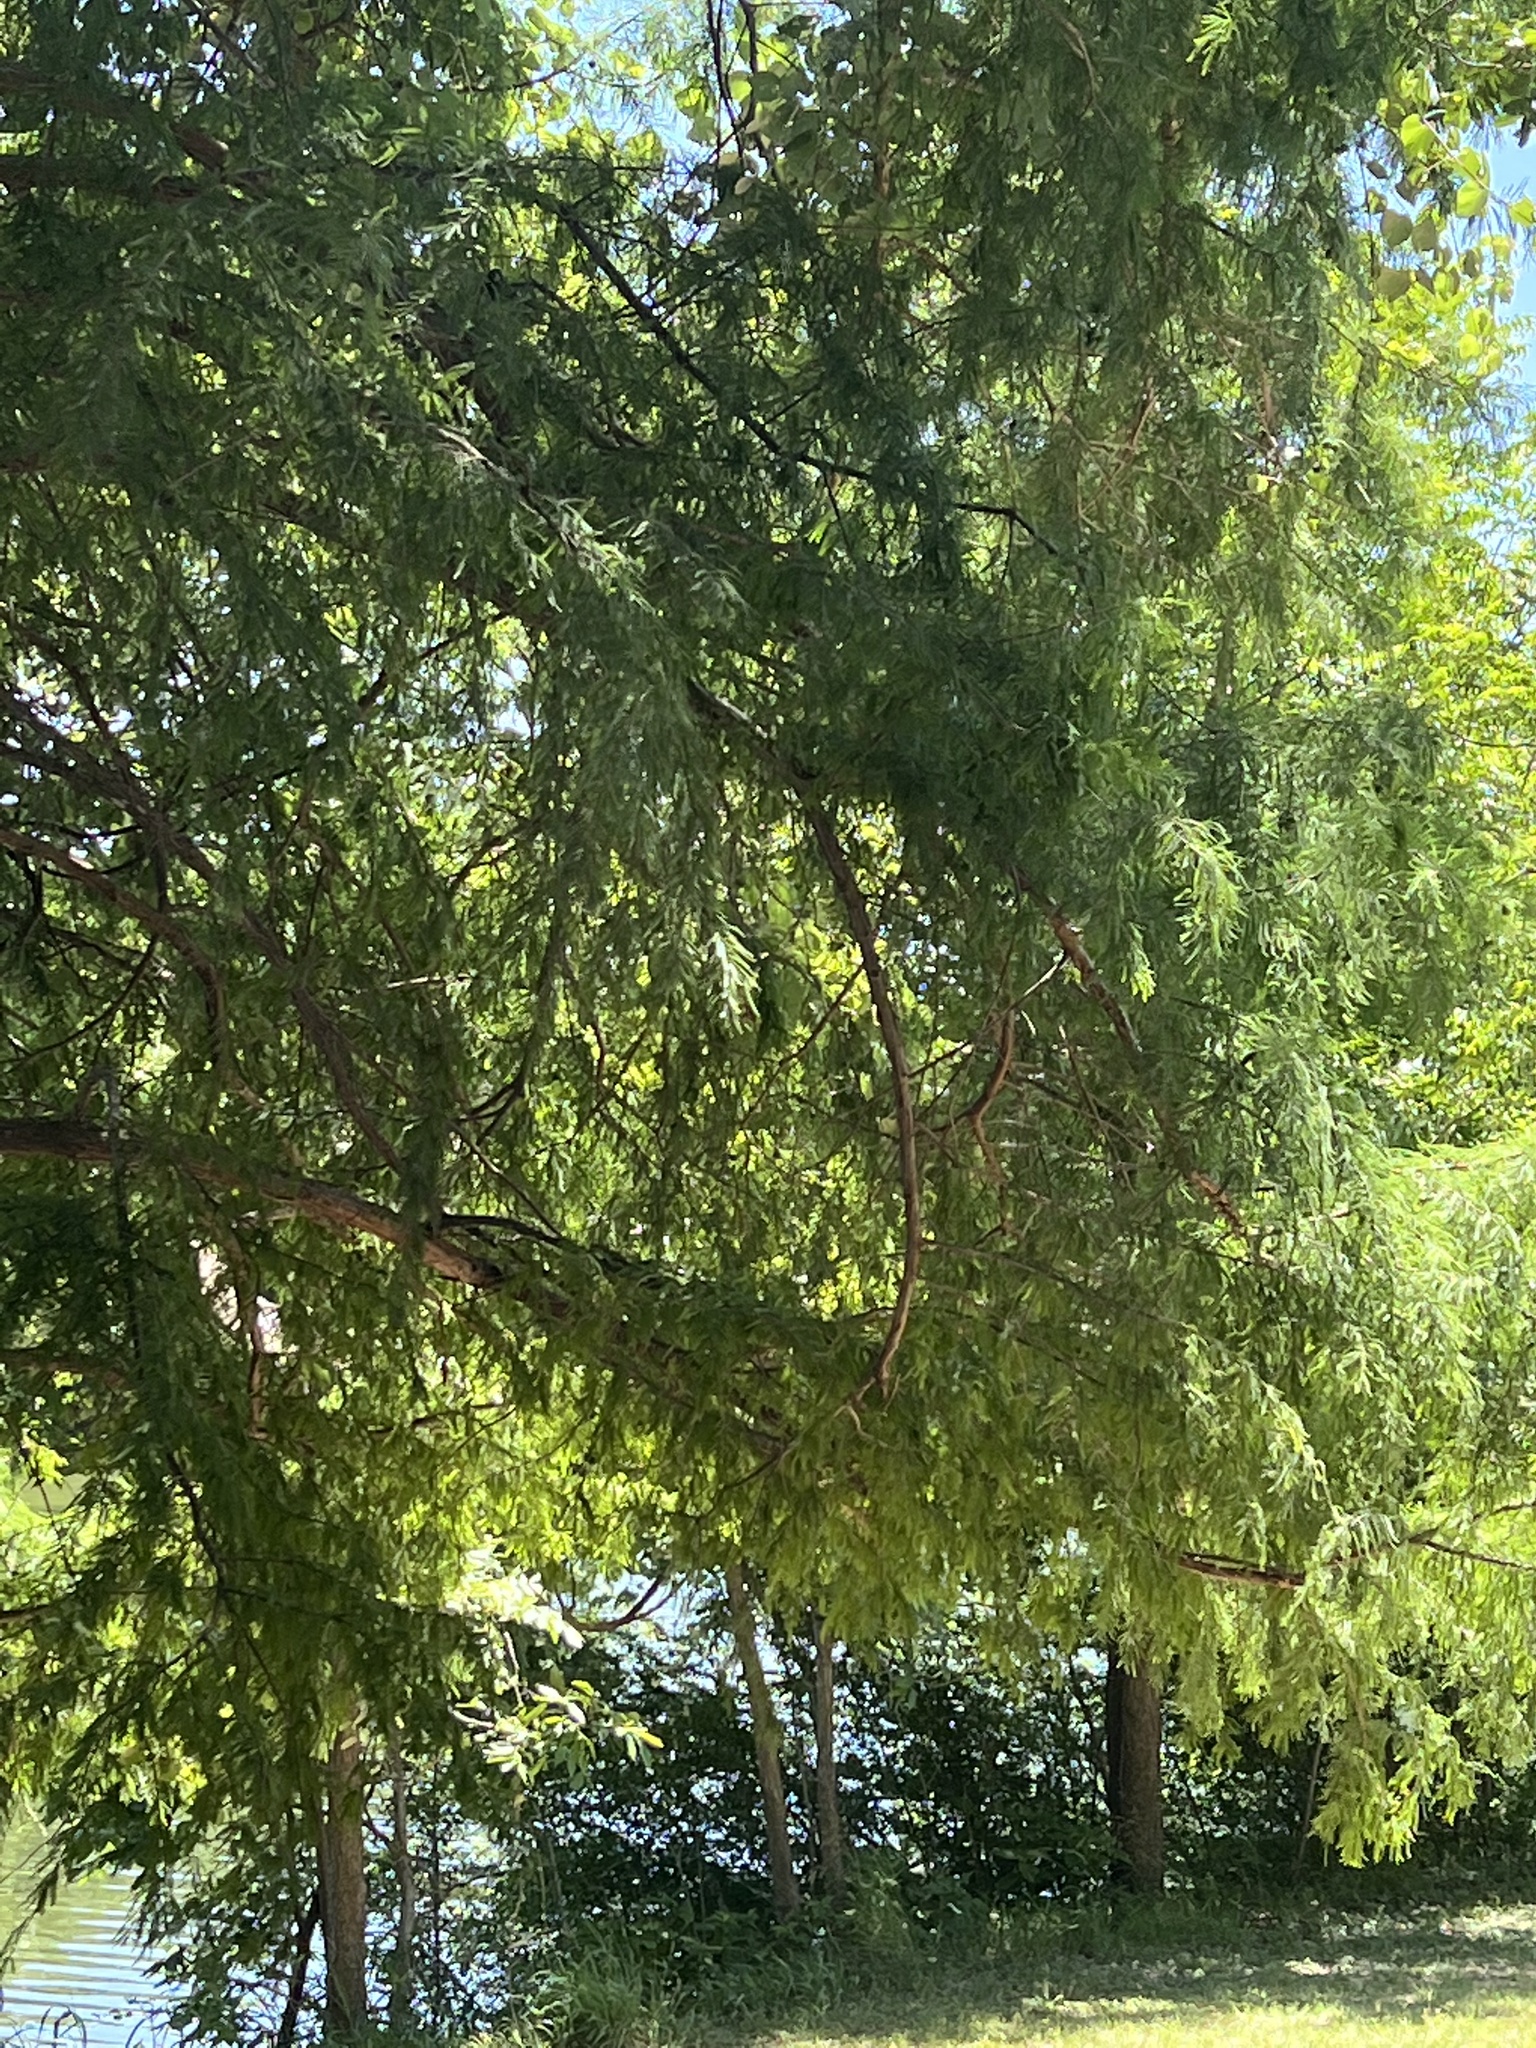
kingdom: Plantae
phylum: Tracheophyta
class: Pinopsida
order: Pinales
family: Cupressaceae
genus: Taxodium
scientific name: Taxodium distichum
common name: Bald cypress
